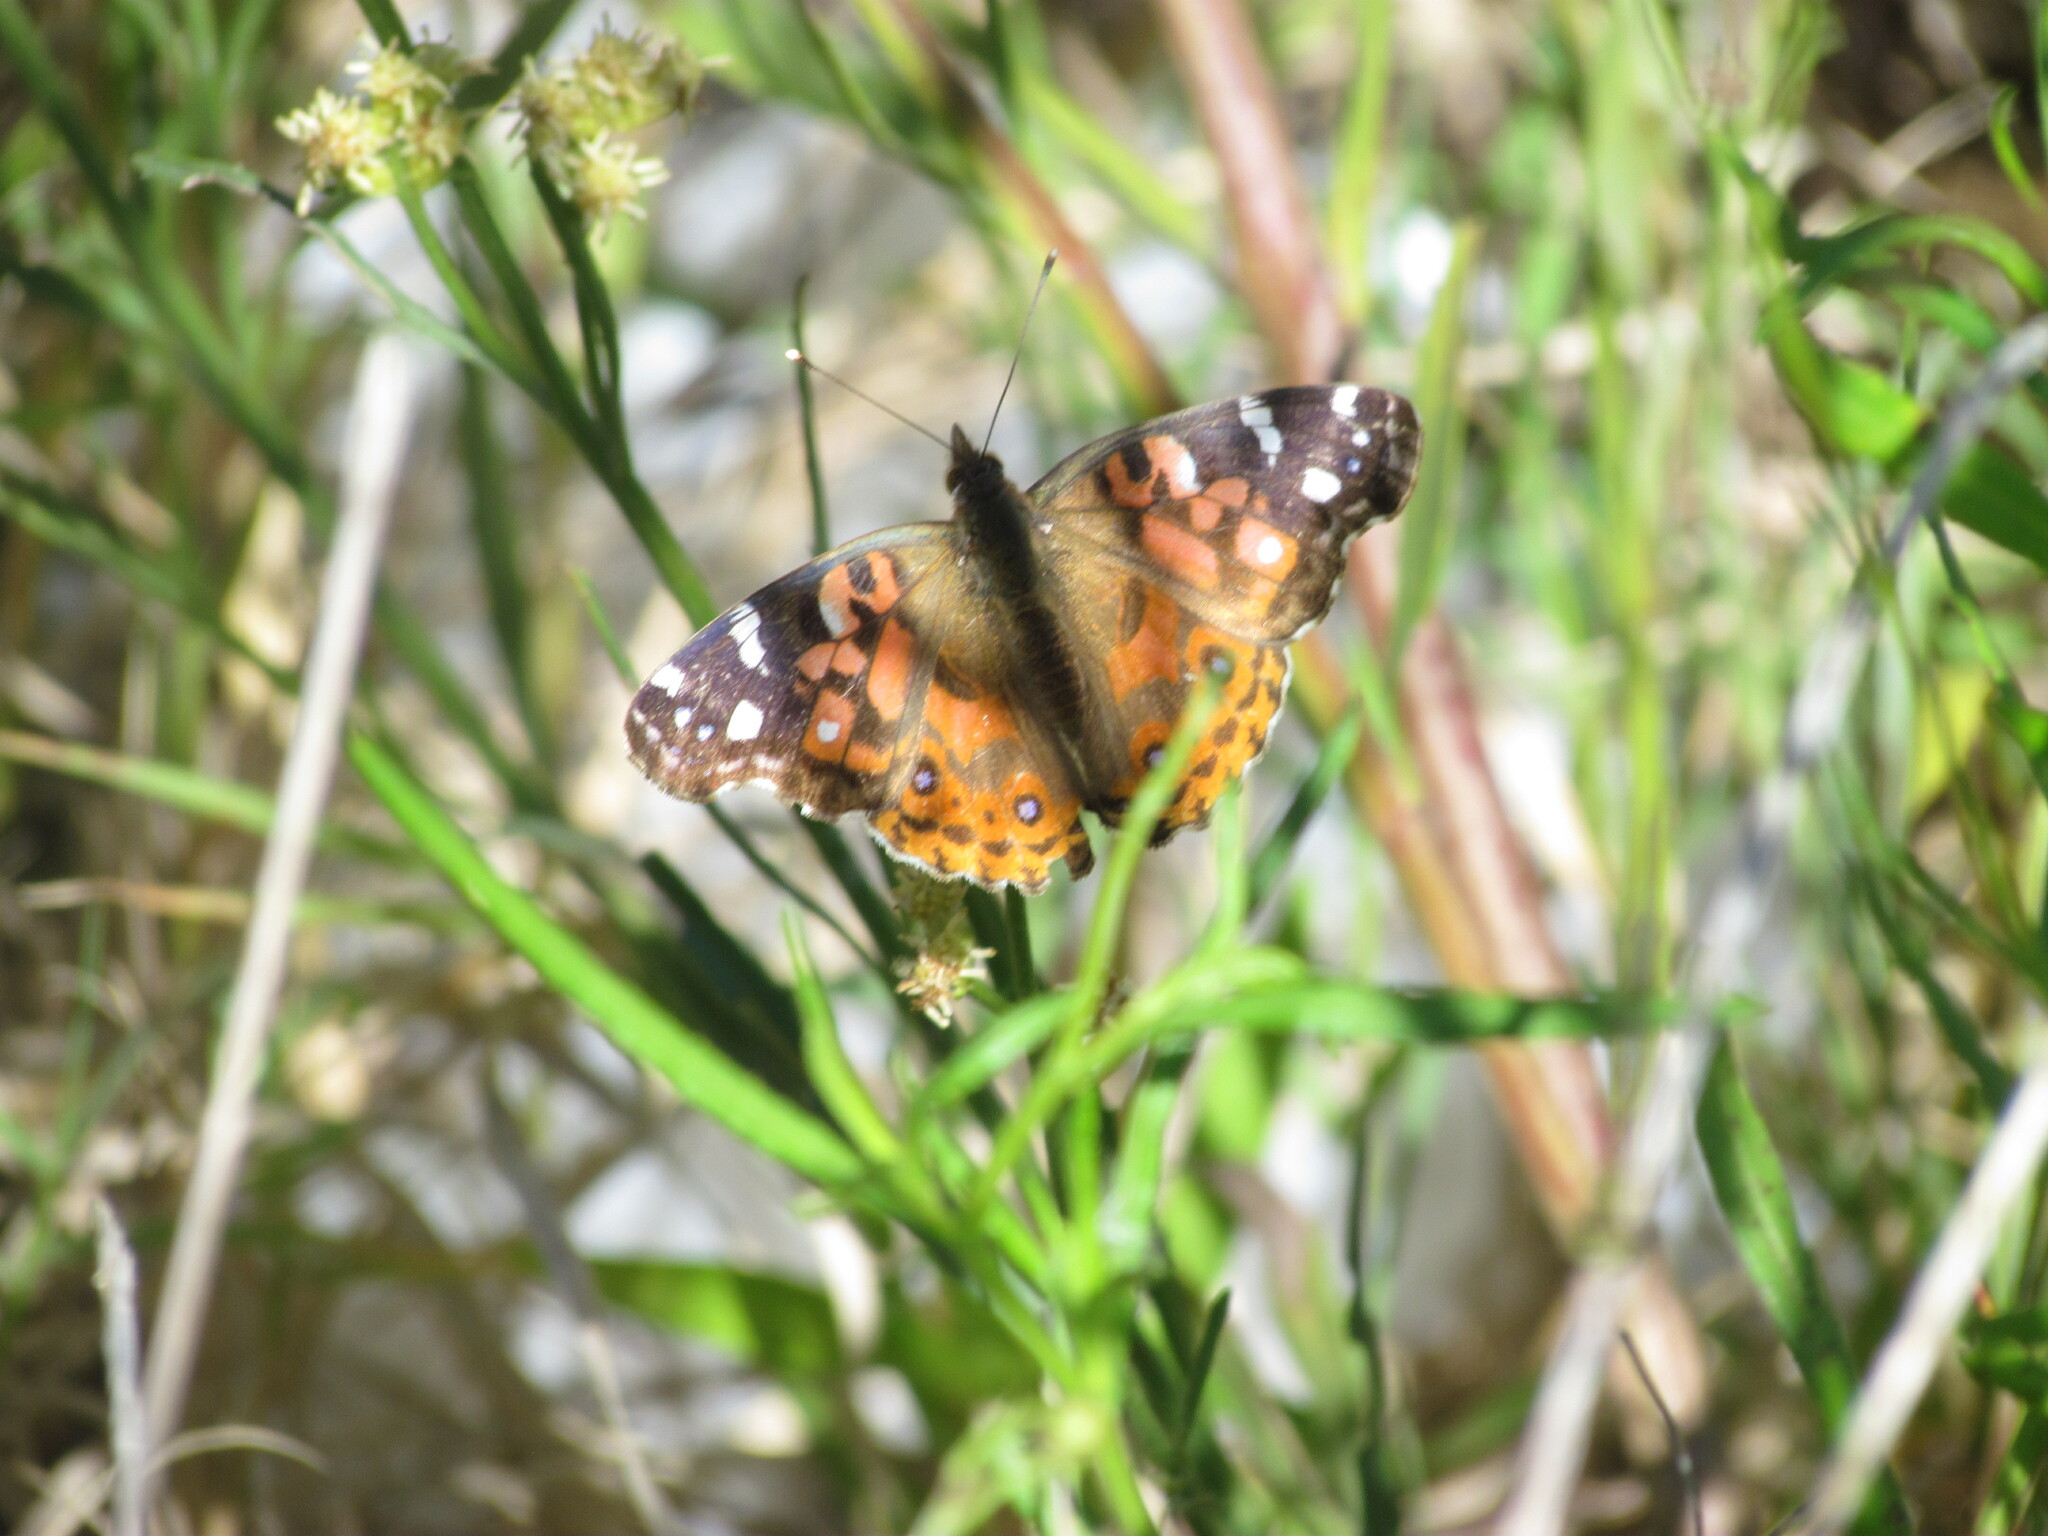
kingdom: Animalia
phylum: Arthropoda
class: Insecta
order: Lepidoptera
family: Nymphalidae
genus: Vanessa
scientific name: Vanessa braziliensis
